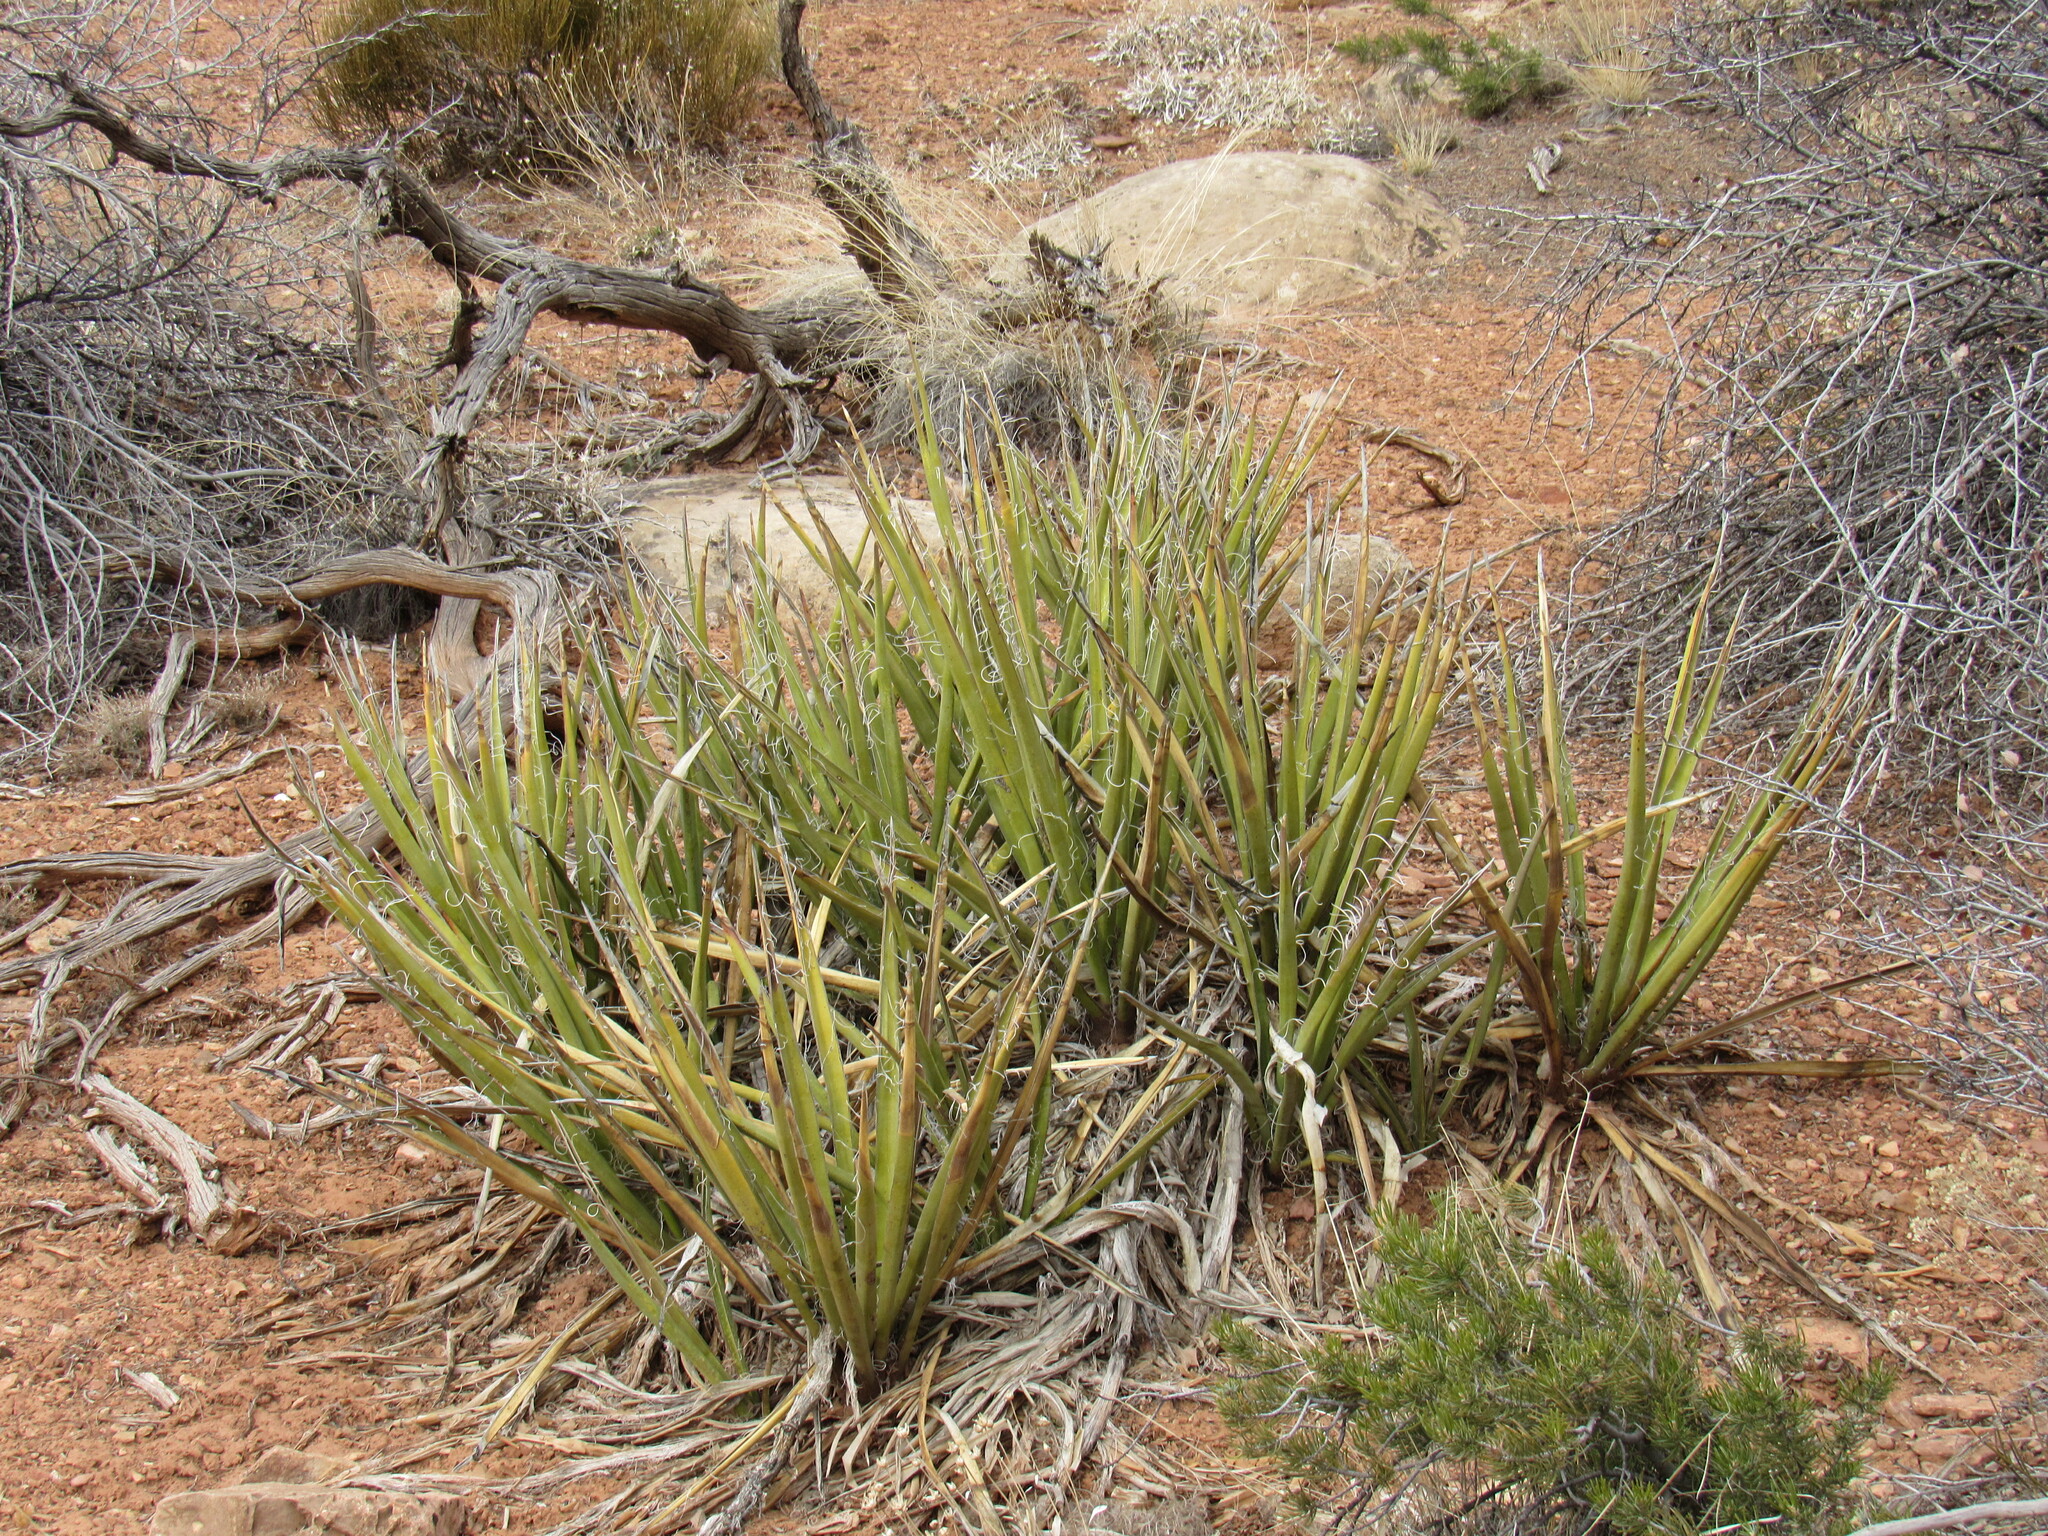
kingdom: Plantae
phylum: Tracheophyta
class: Liliopsida
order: Asparagales
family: Asparagaceae
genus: Yucca
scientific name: Yucca baccata
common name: Banana yucca
